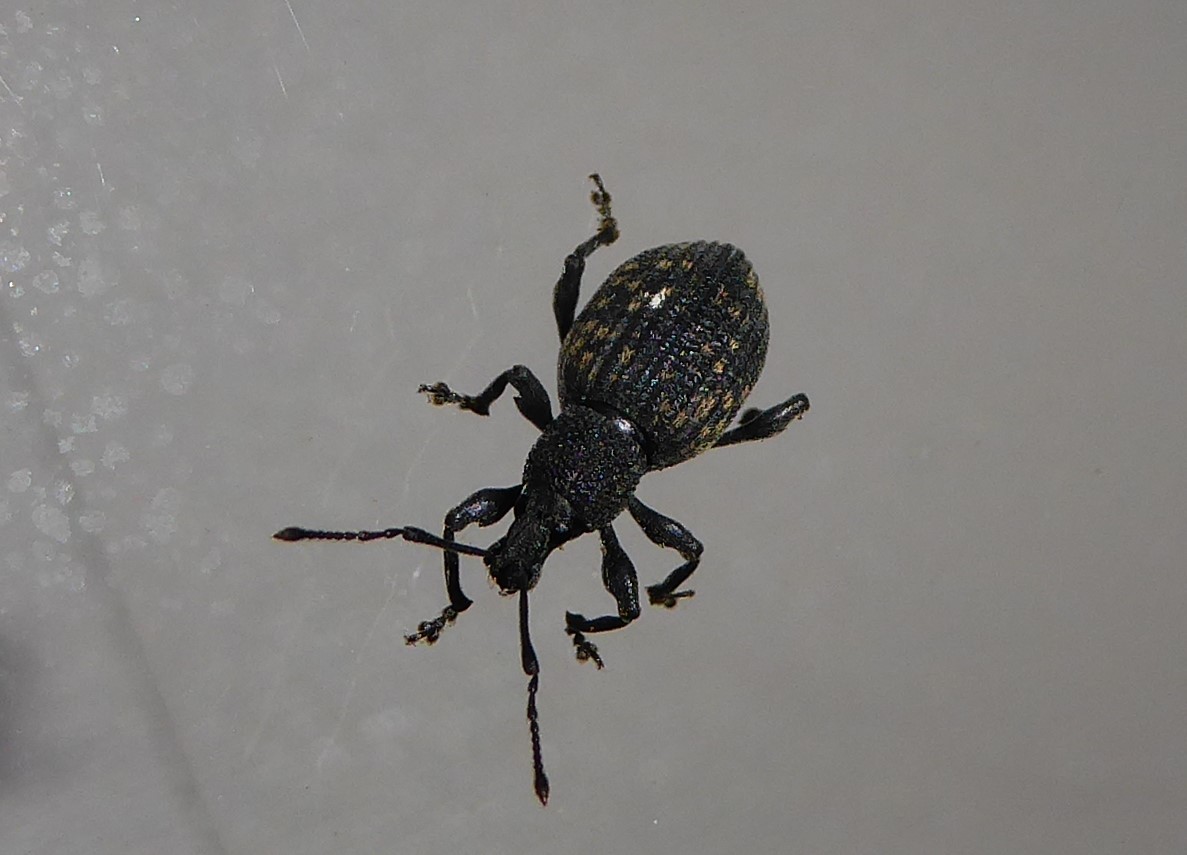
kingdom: Animalia
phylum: Arthropoda
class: Insecta
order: Coleoptera
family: Curculionidae
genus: Otiorhynchus
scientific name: Otiorhynchus sulcatus
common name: Black vine weevil
